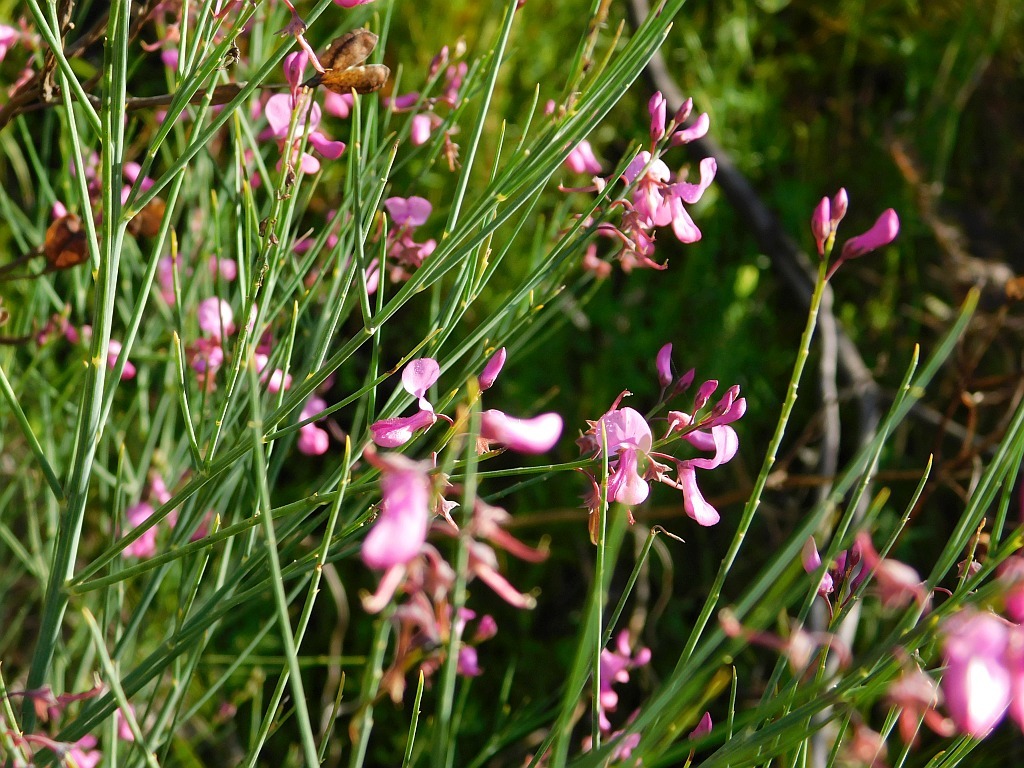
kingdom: Plantae
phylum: Tracheophyta
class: Magnoliopsida
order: Fabales
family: Fabaceae
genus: Indigofera
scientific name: Indigofera filifolia
